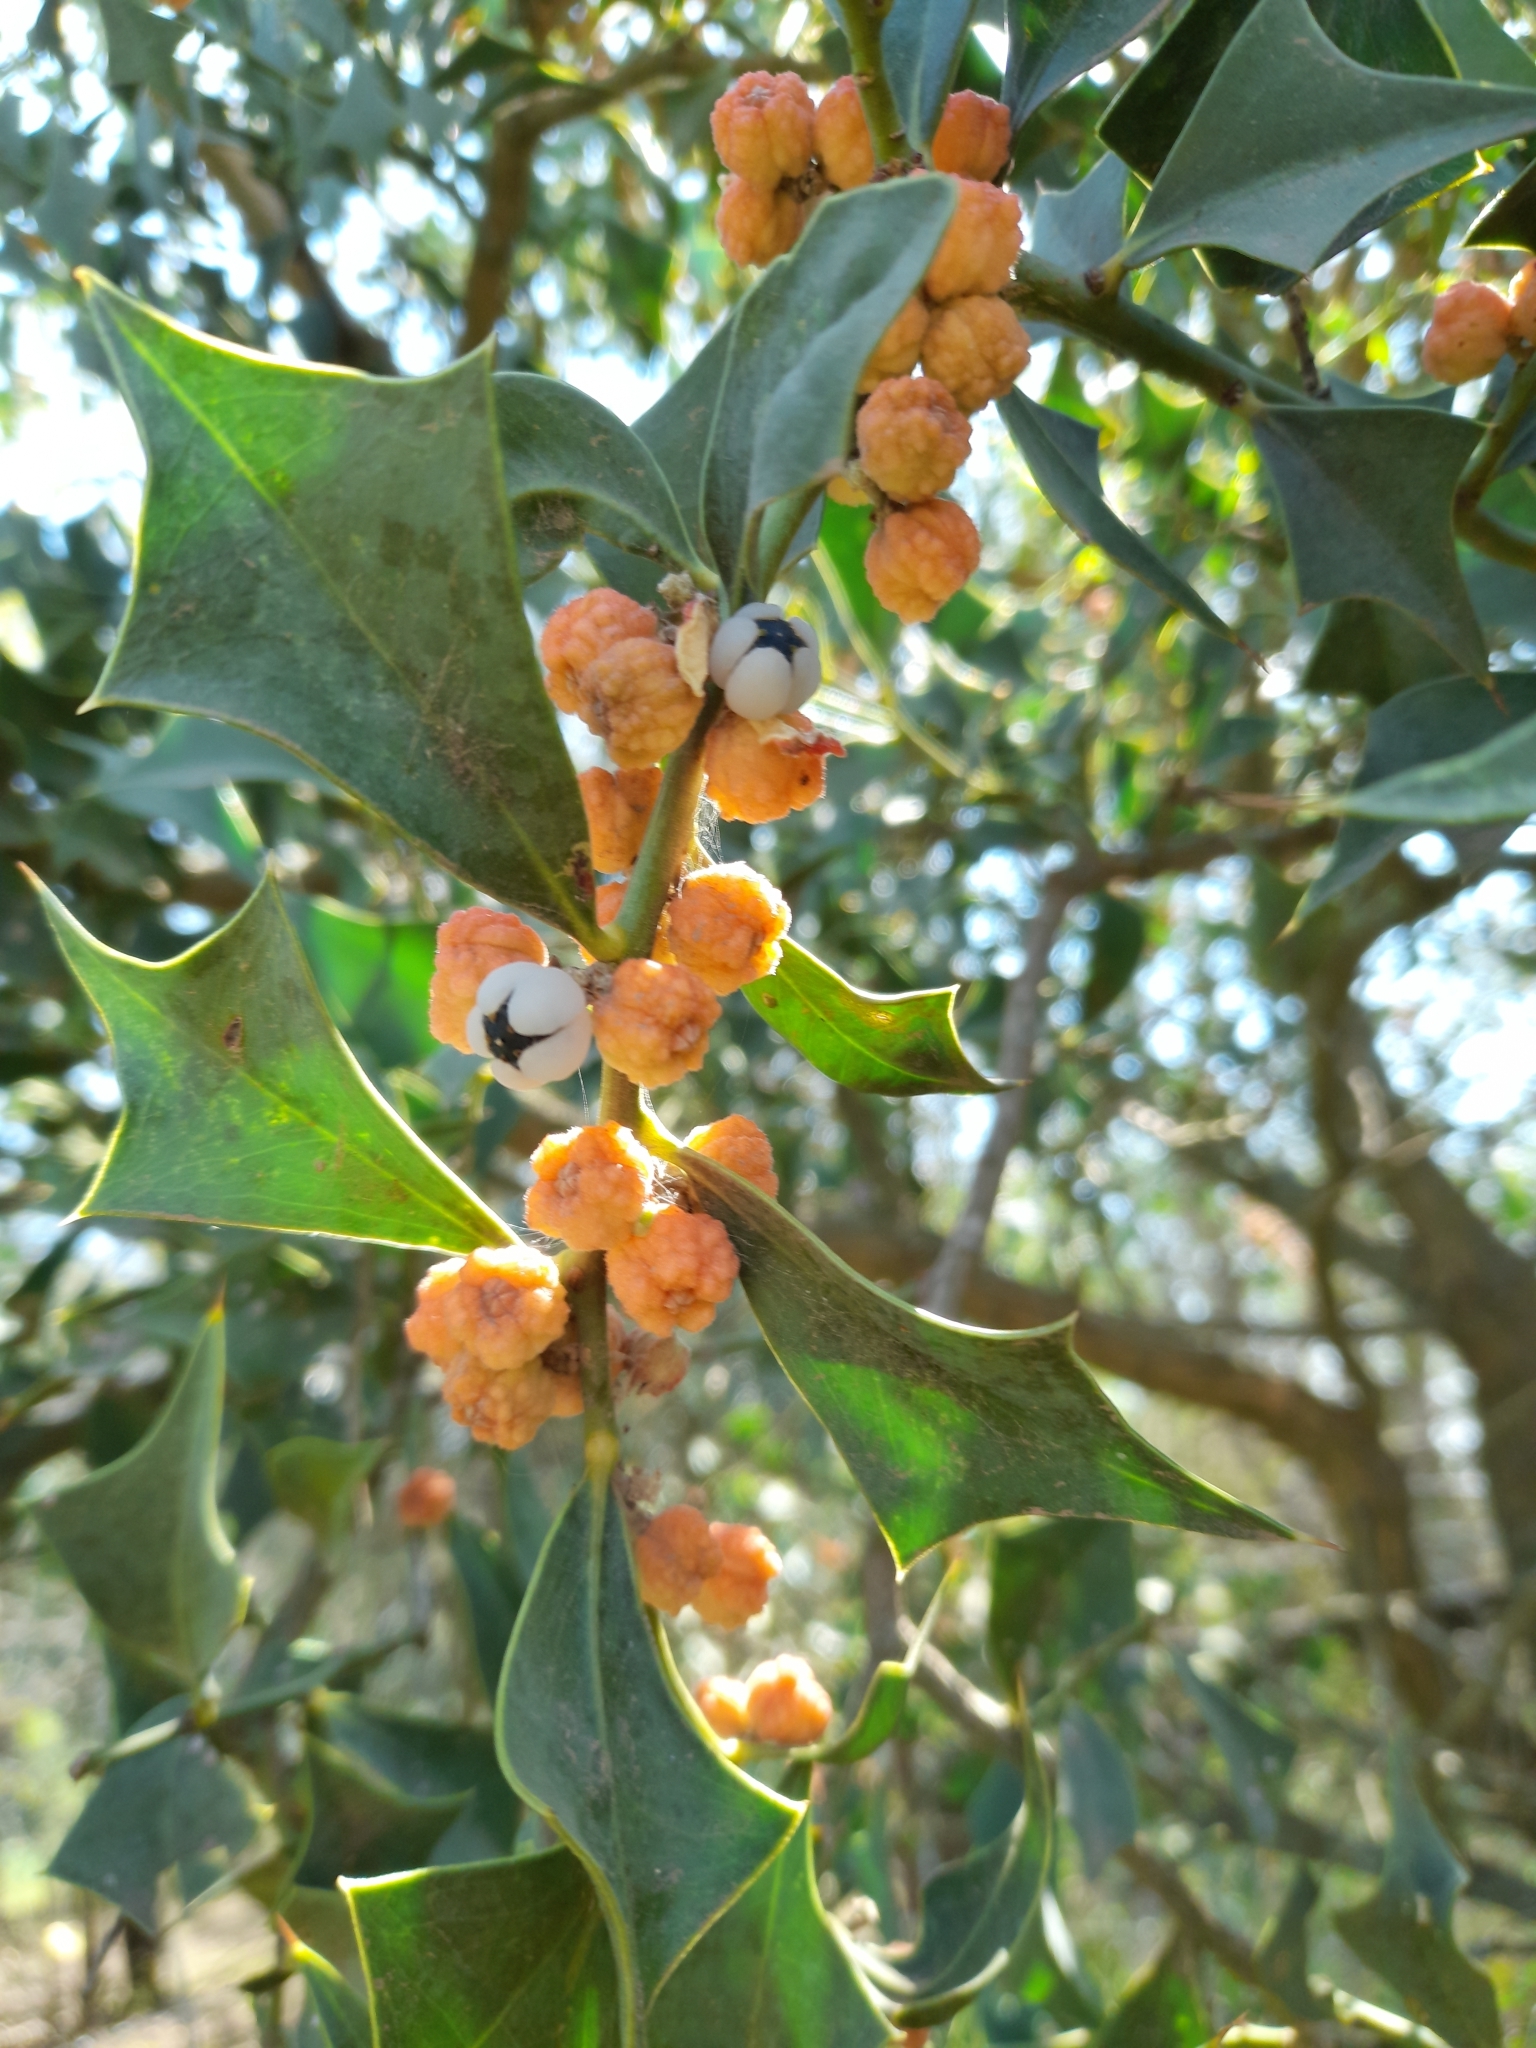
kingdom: Plantae
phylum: Tracheophyta
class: Magnoliopsida
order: Santalales
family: Cervantesiaceae
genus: Jodina
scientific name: Jodina rhombifolia
